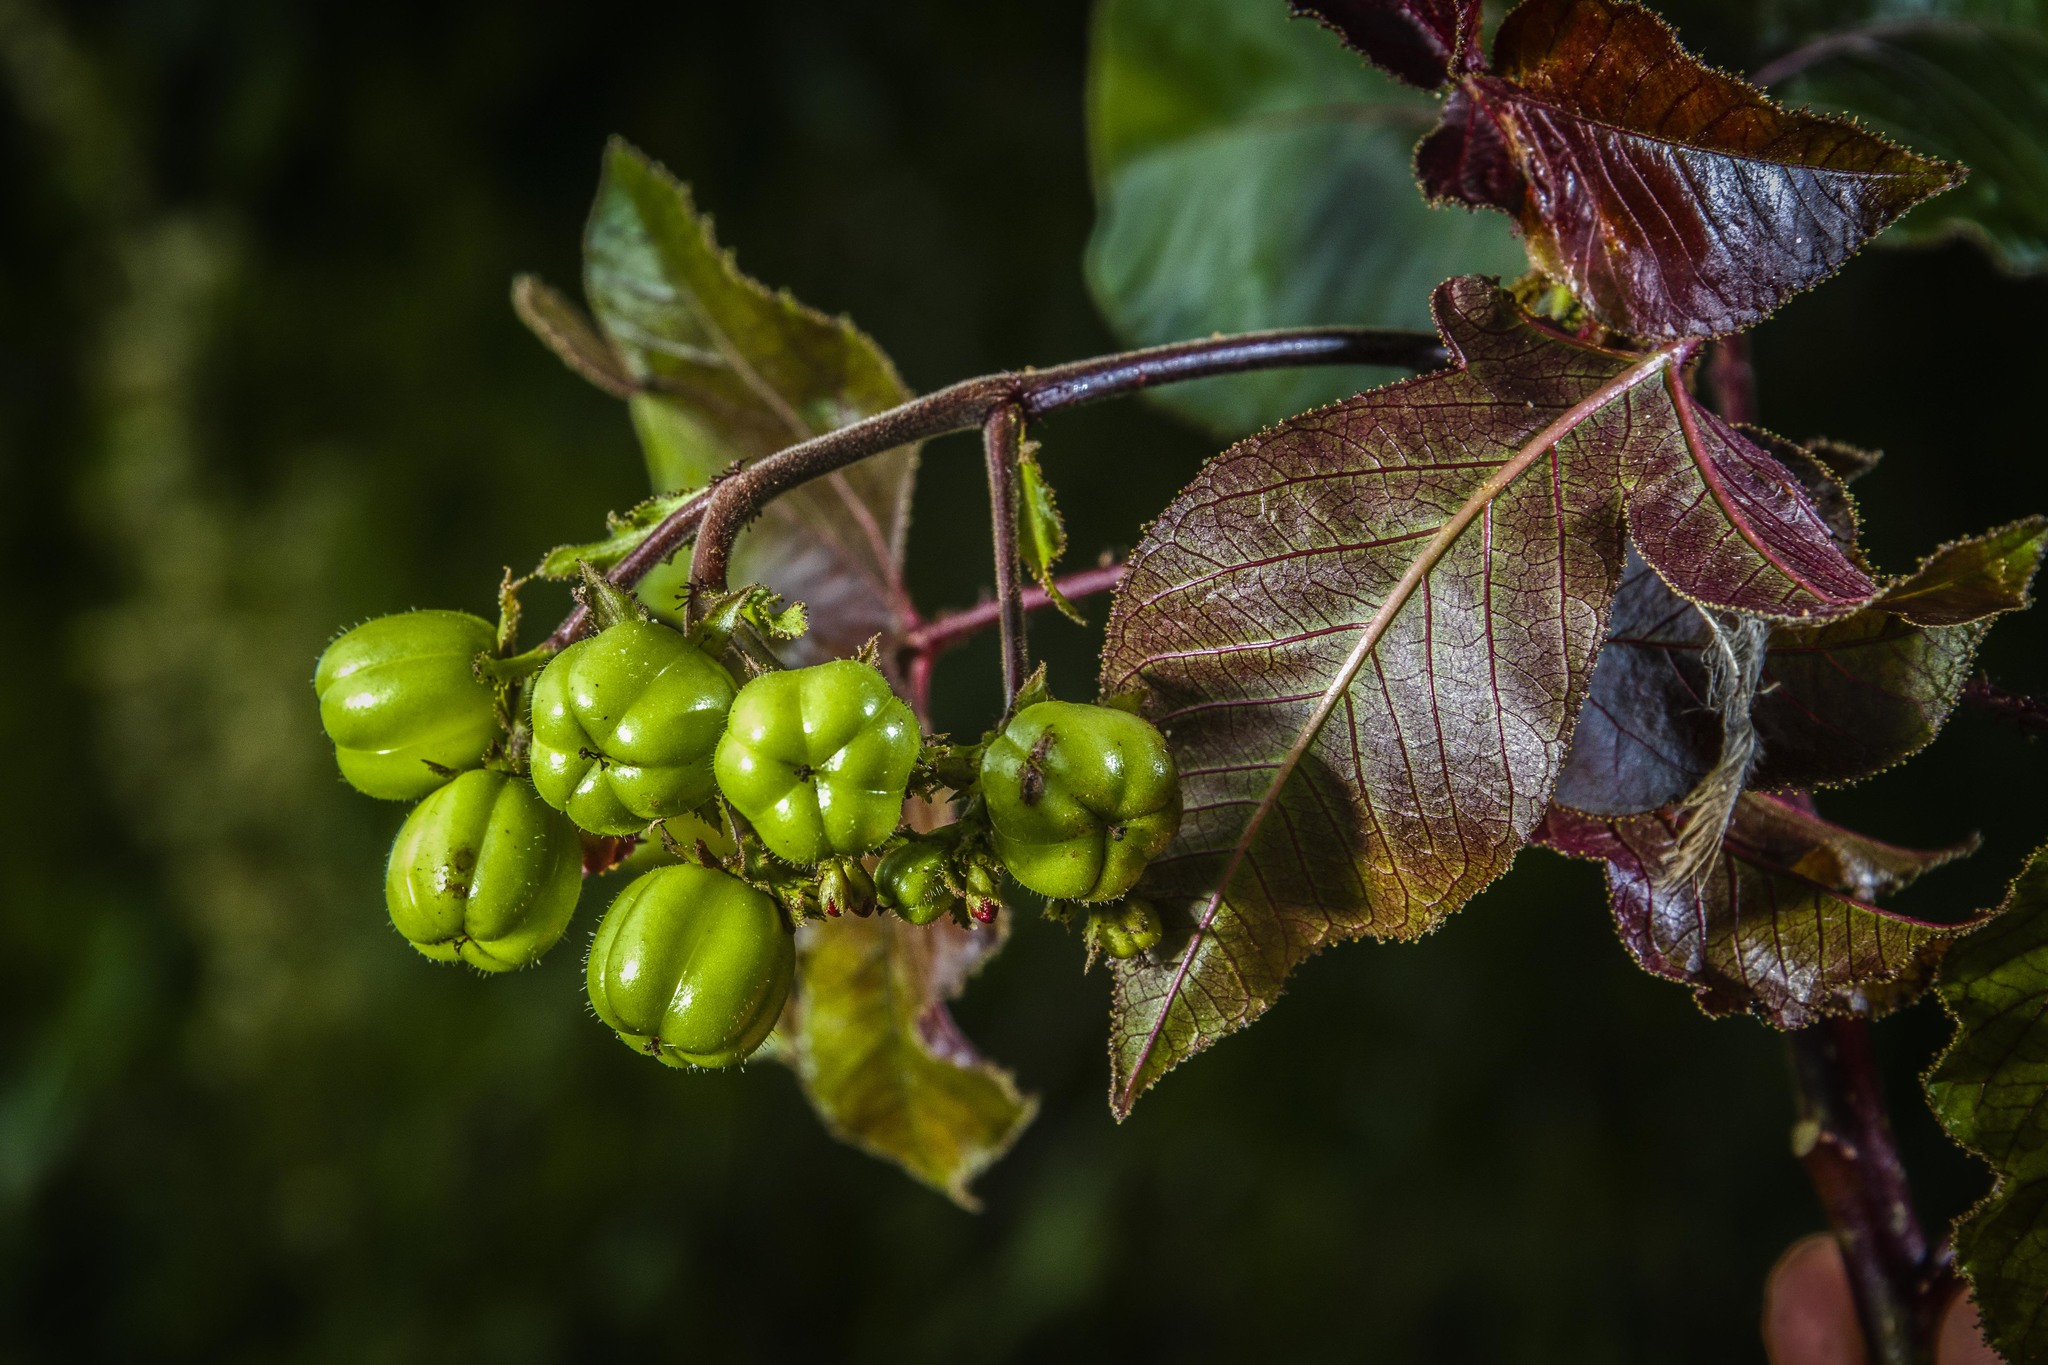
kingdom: Plantae
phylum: Tracheophyta
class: Magnoliopsida
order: Malpighiales
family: Euphorbiaceae
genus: Jatropha
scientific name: Jatropha gossypiifolia
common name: Bellyache bush
